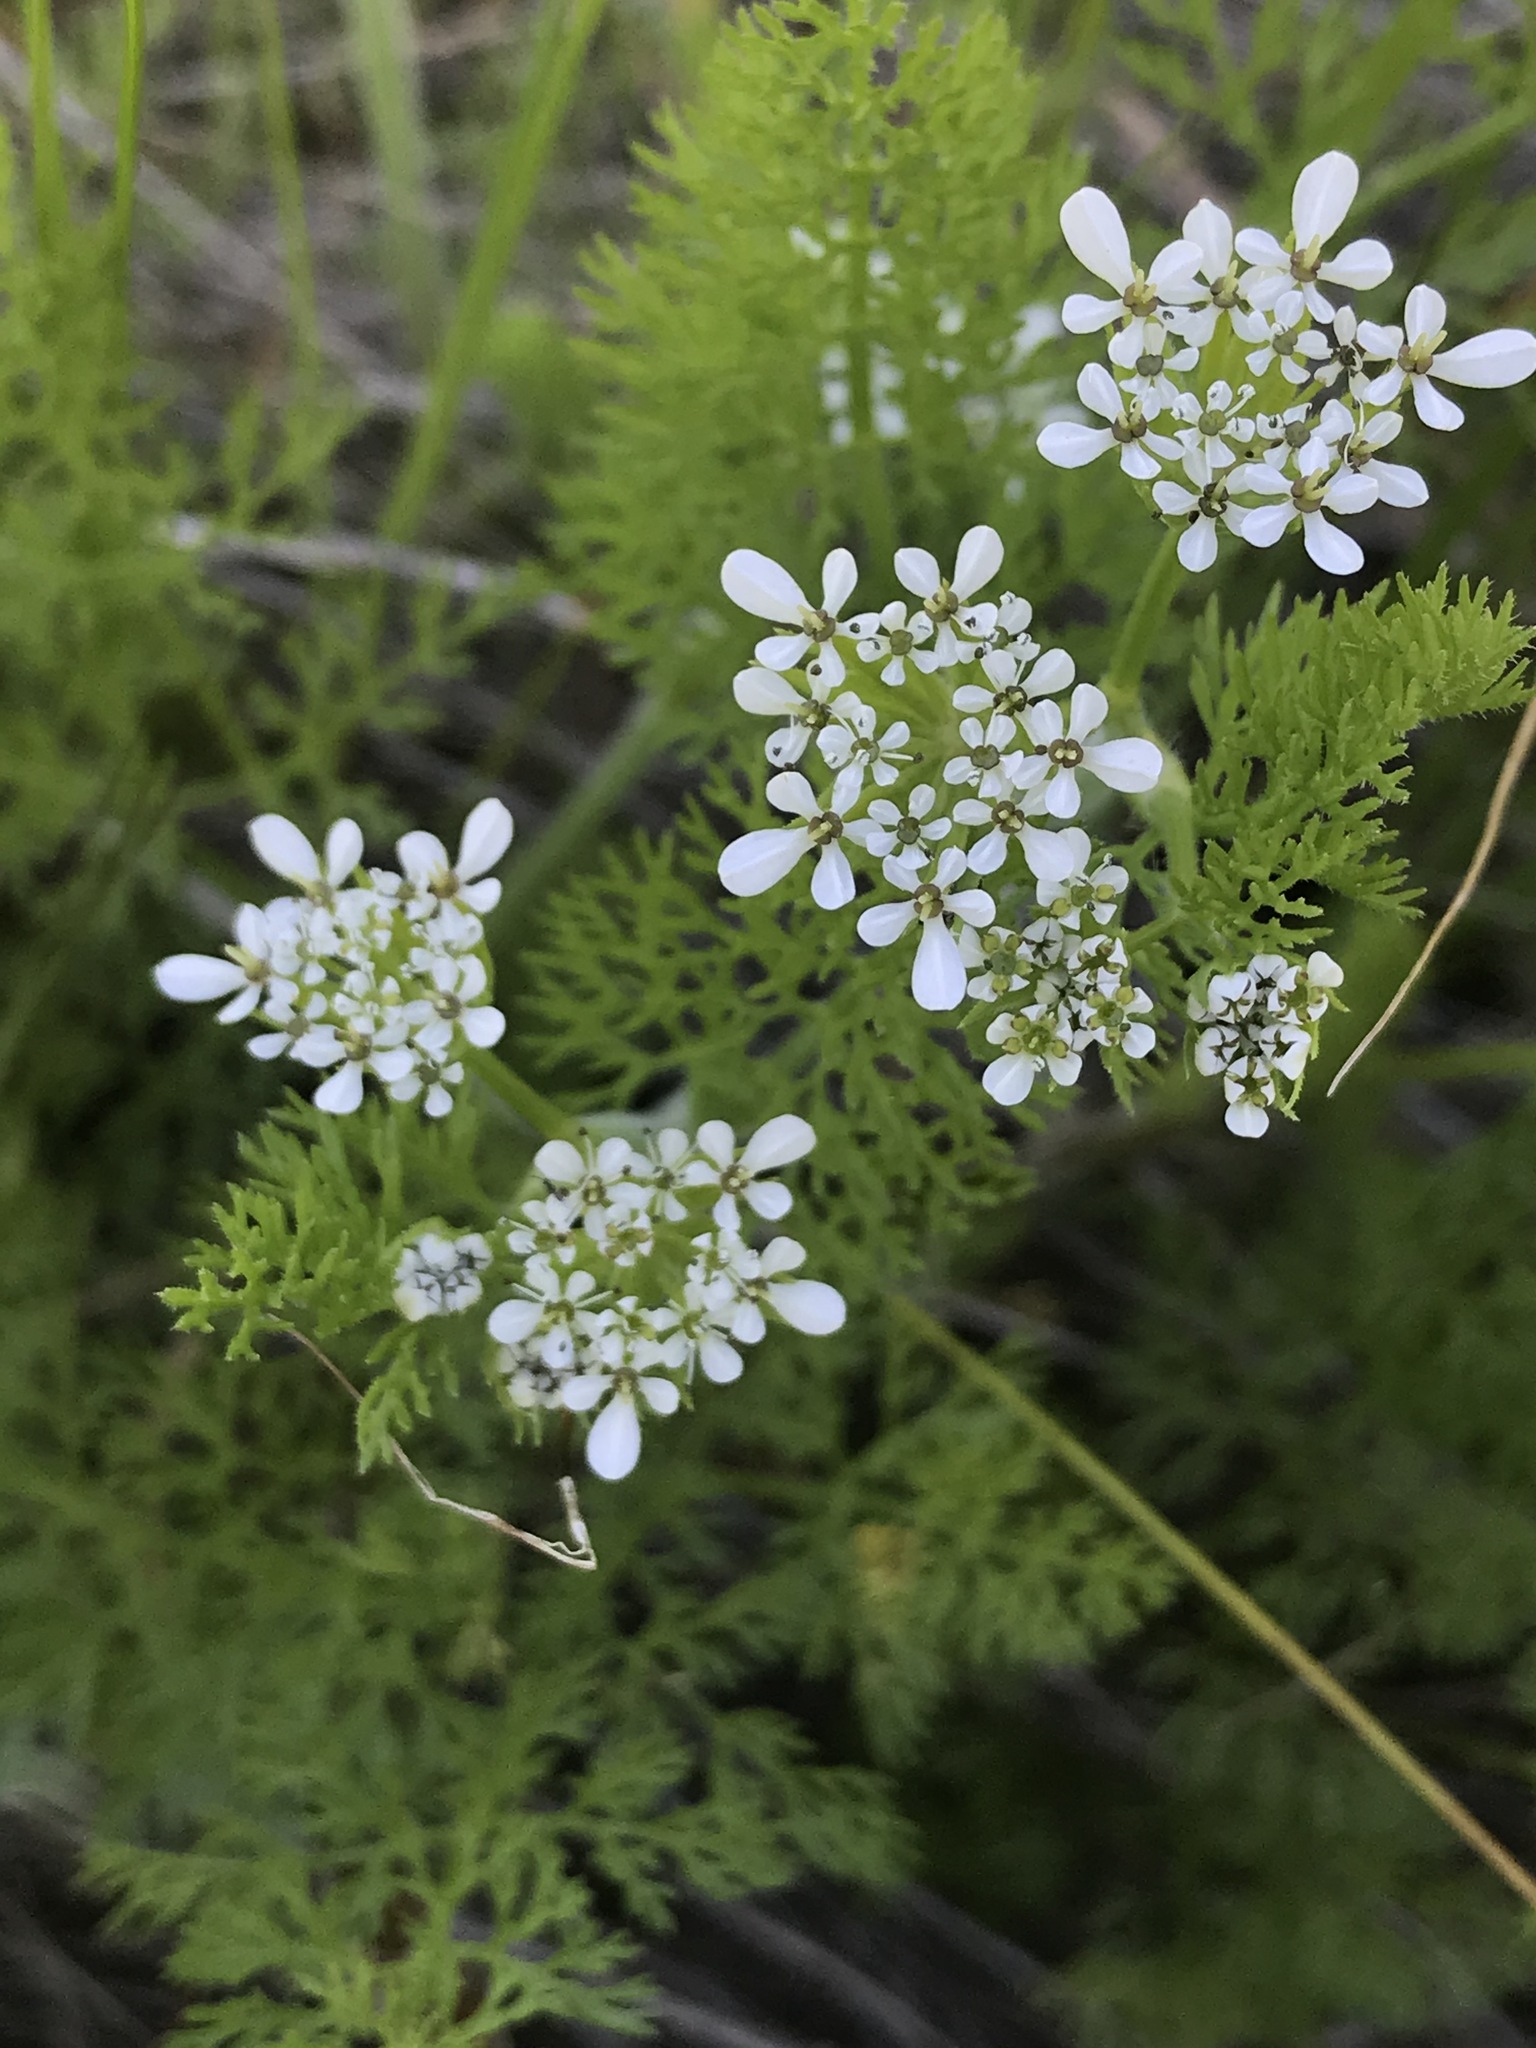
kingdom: Plantae
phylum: Tracheophyta
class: Magnoliopsida
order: Apiales
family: Apiaceae
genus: Scandix
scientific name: Scandix pecten-veneris
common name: Shepherd's-needle
